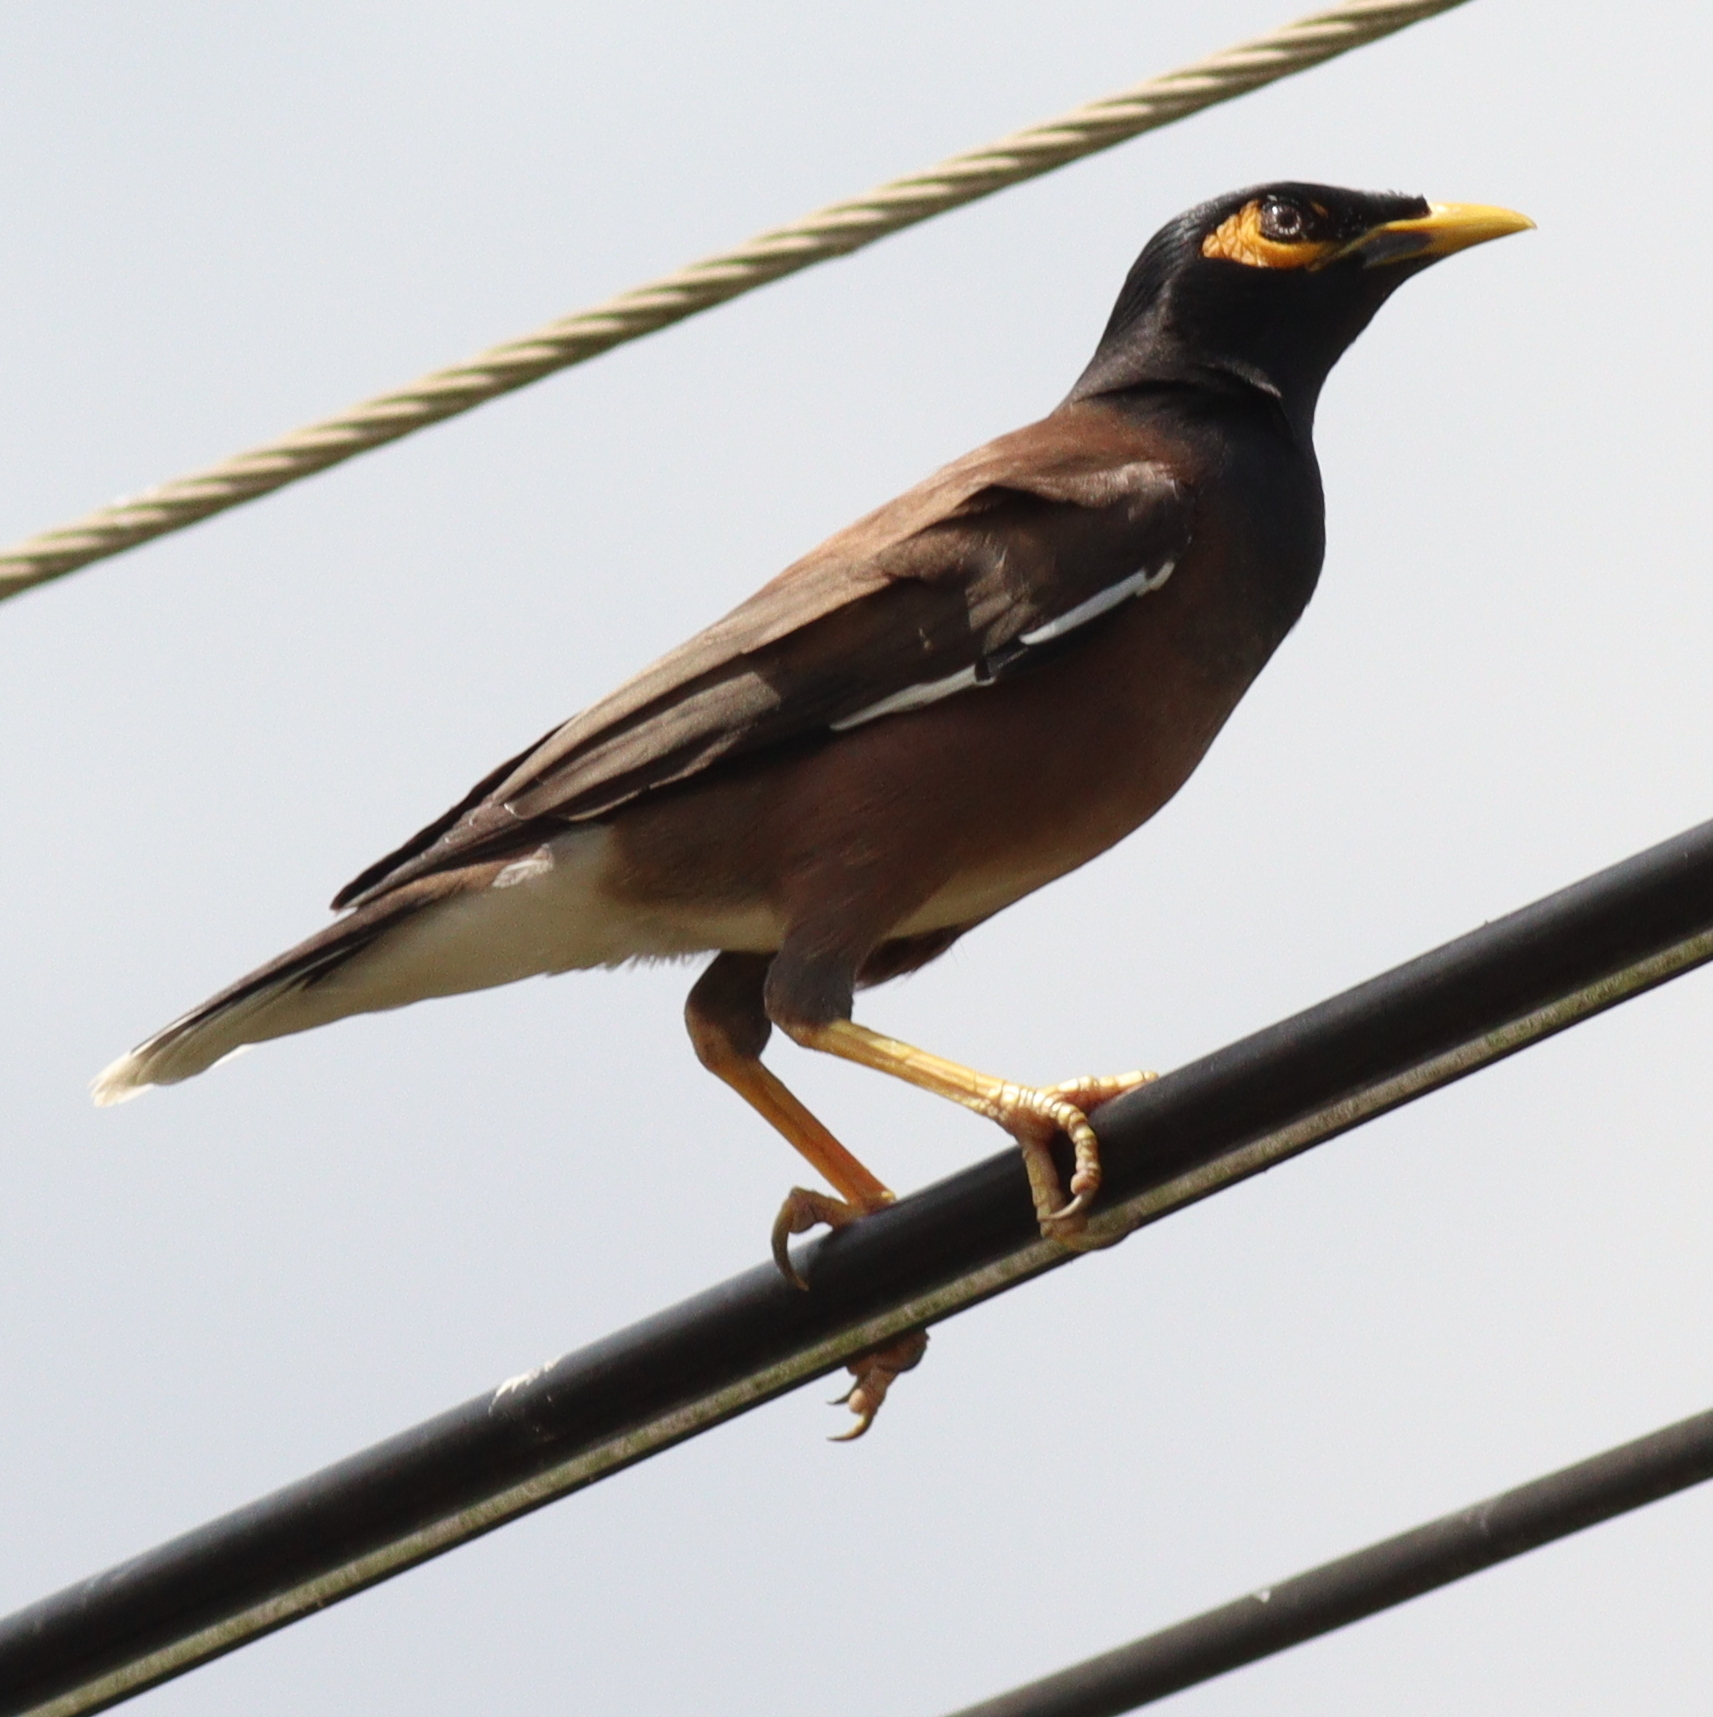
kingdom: Animalia
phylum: Chordata
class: Aves
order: Passeriformes
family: Sturnidae
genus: Acridotheres
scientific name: Acridotheres tristis
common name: Common myna
